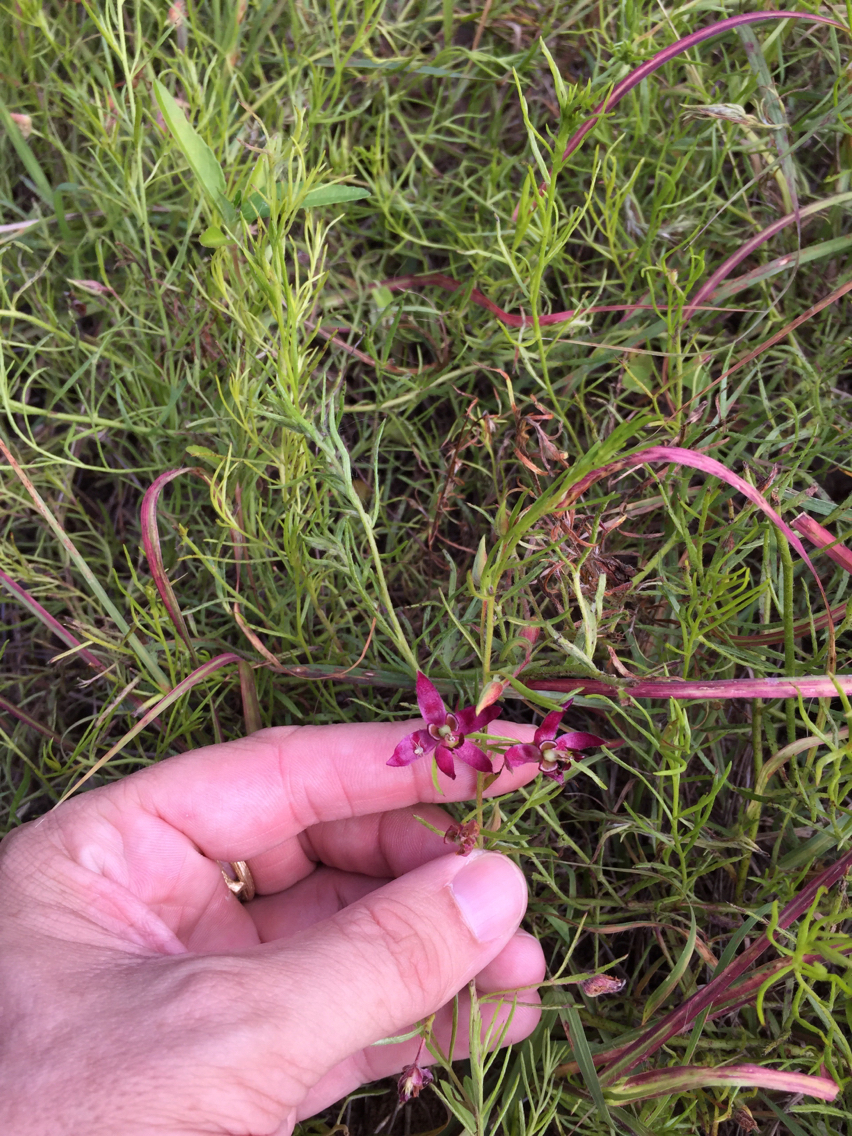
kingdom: Plantae
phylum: Tracheophyta
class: Magnoliopsida
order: Zygophyllales
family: Krameriaceae
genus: Krameria
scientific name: Krameria lanceolata
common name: Ratany
